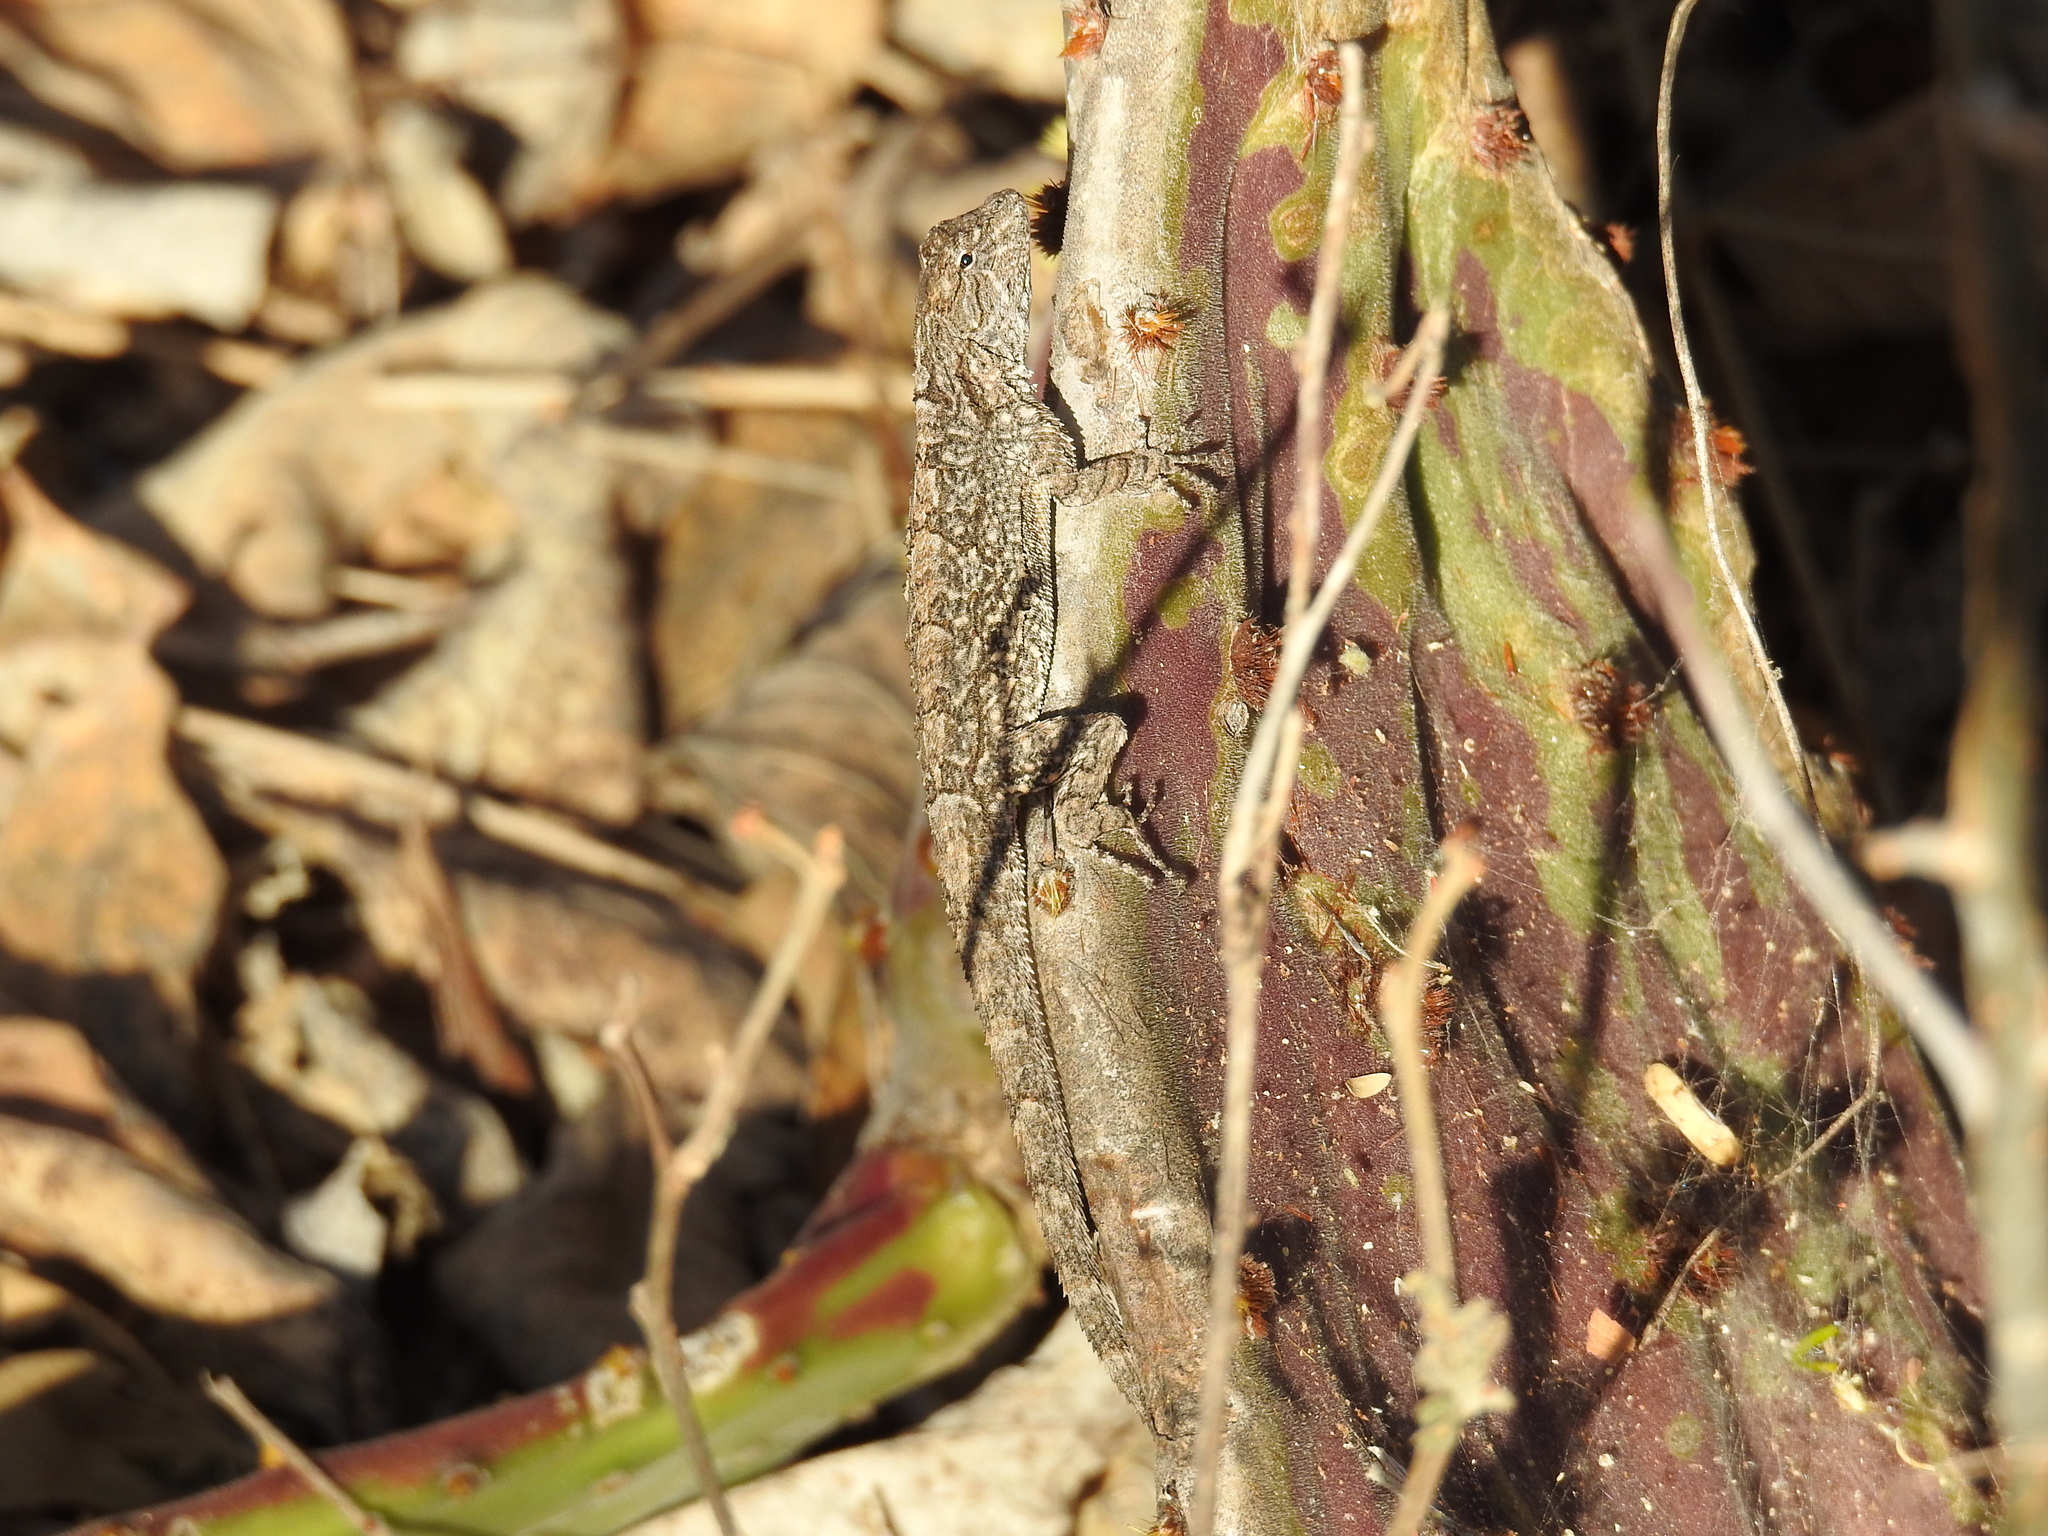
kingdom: Animalia
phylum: Chordata
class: Squamata
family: Phrynosomatidae
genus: Urosaurus
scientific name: Urosaurus bicarinatus
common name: Tropical tree lizard
